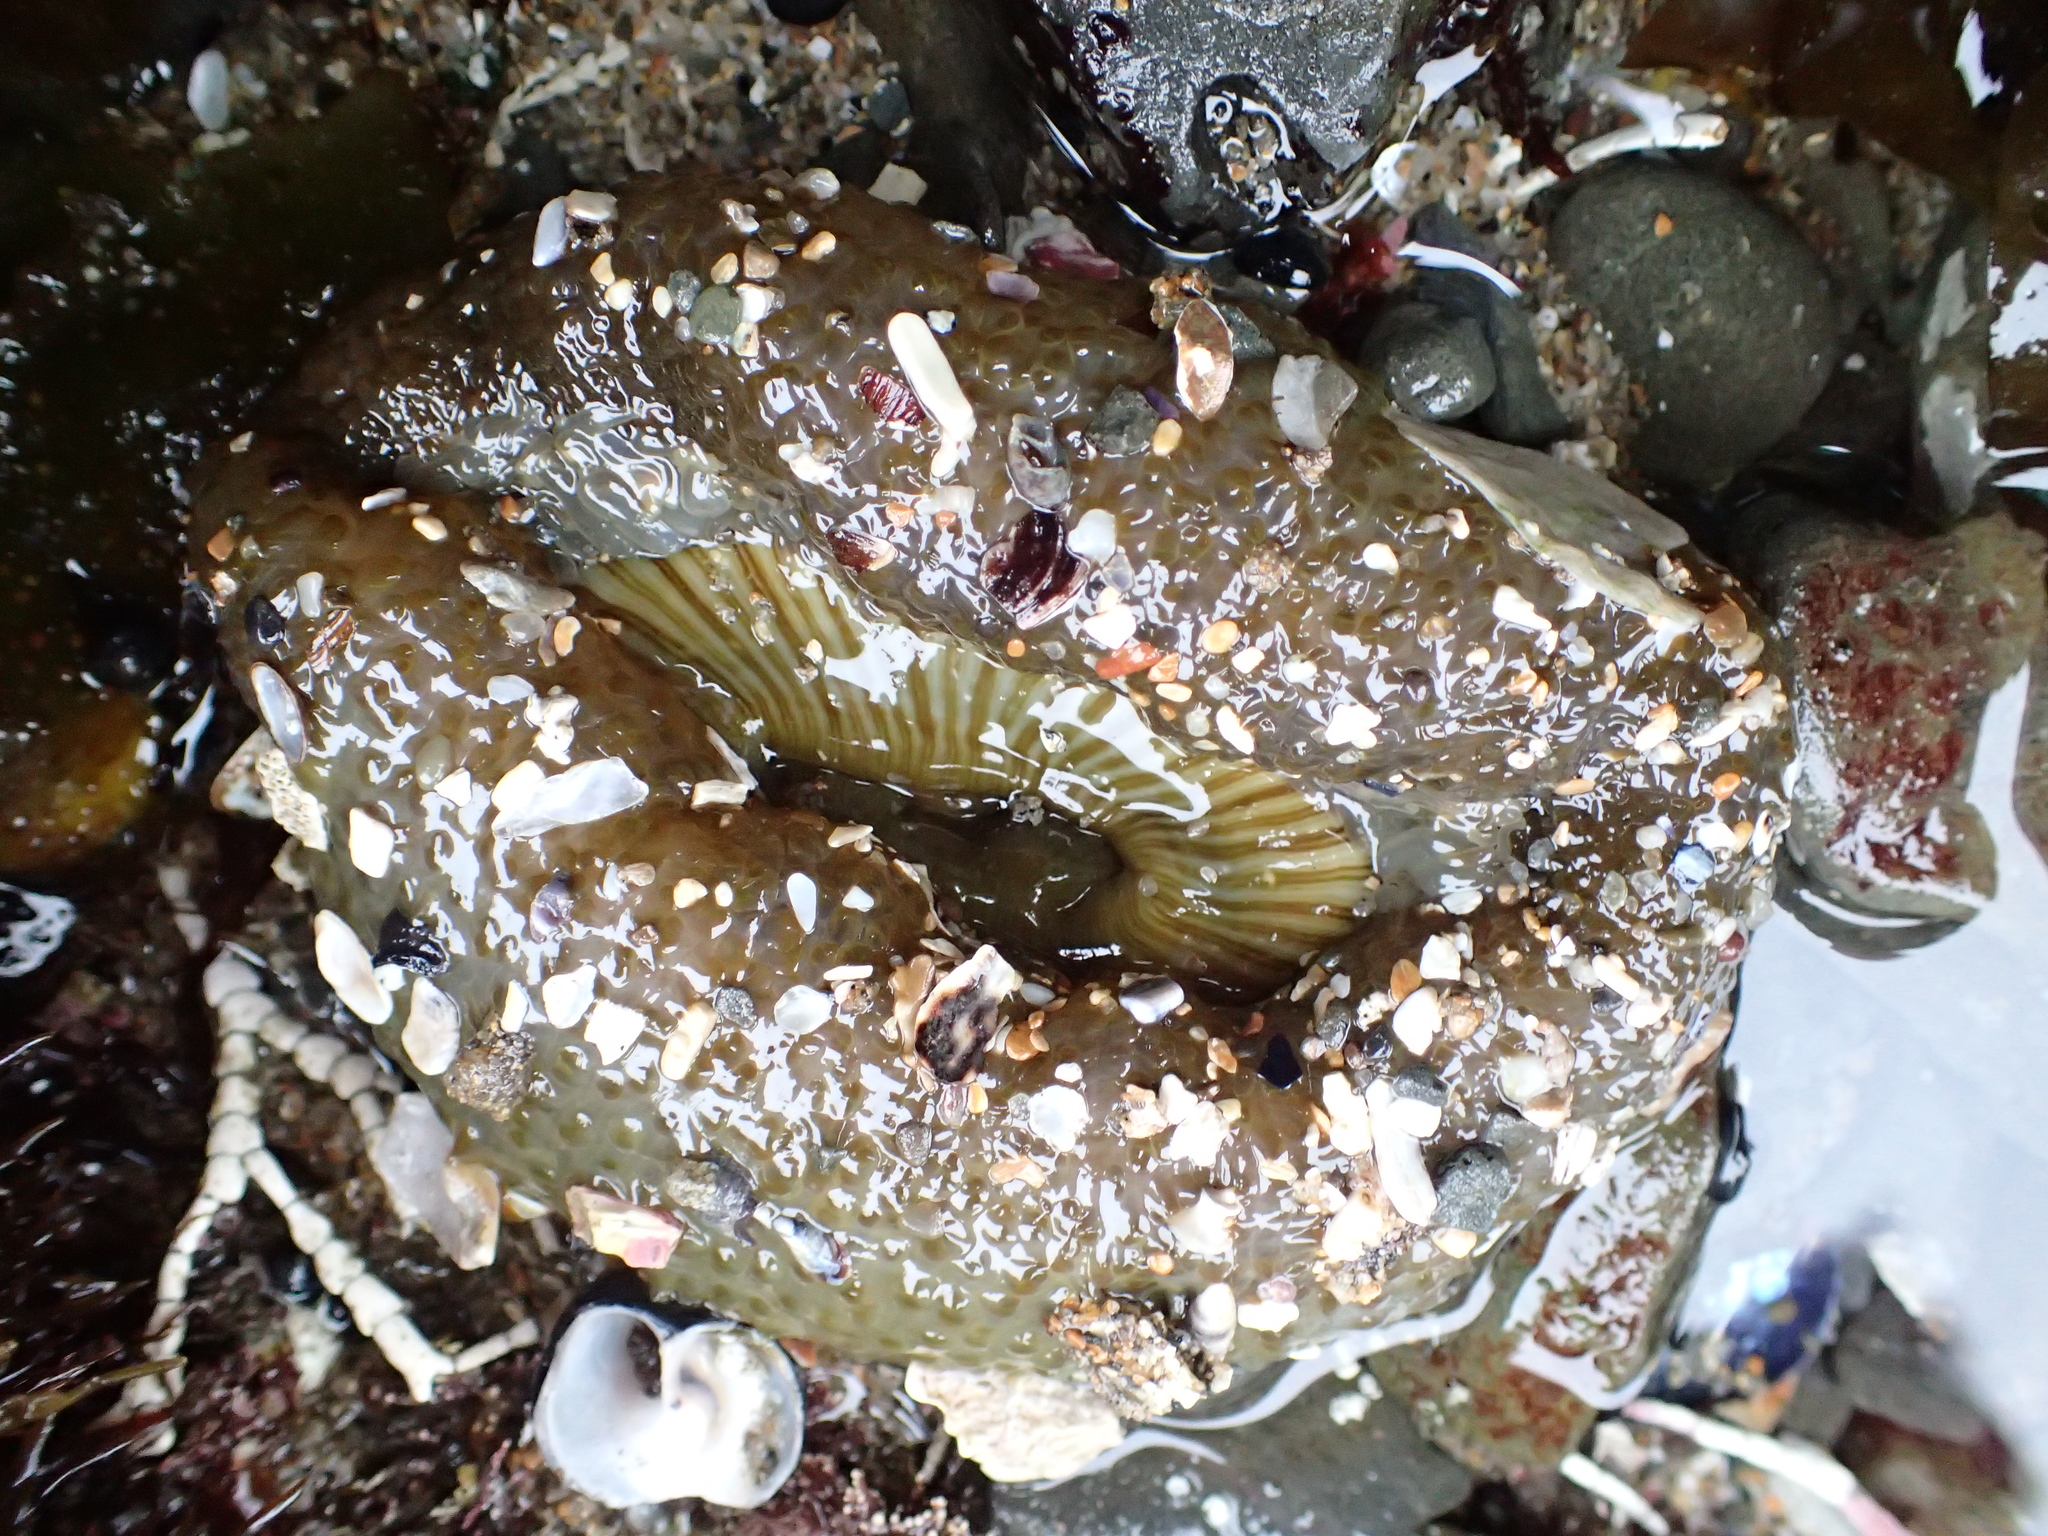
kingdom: Animalia
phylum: Cnidaria
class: Anthozoa
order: Actiniaria
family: Actiniidae
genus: Anthopleura
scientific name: Anthopleura sola
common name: Sun anemone
